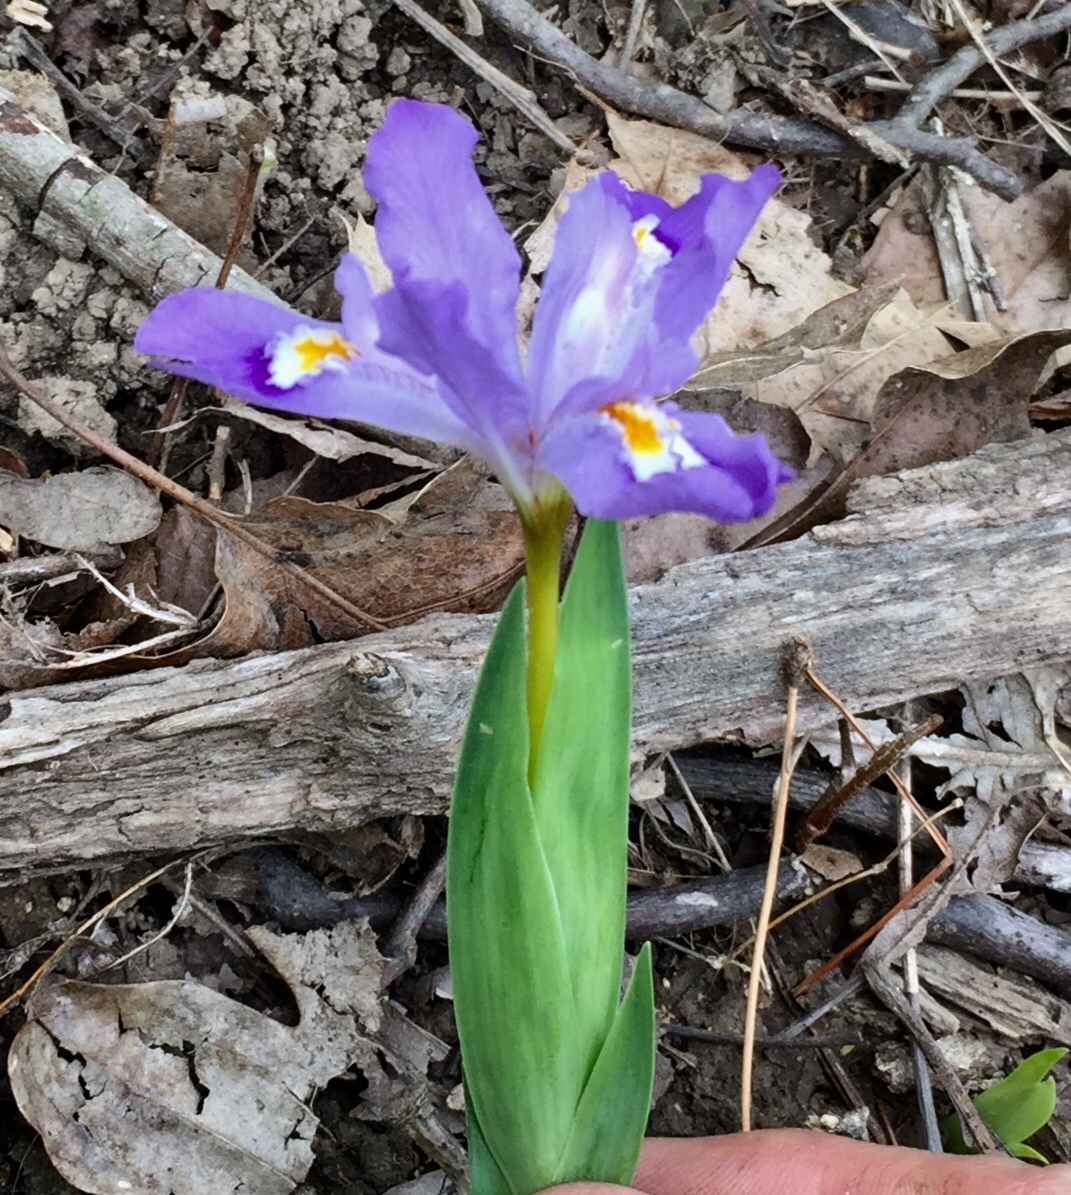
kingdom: Plantae
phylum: Tracheophyta
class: Liliopsida
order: Asparagales
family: Iridaceae
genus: Iris
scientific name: Iris cristata
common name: Crested iris
